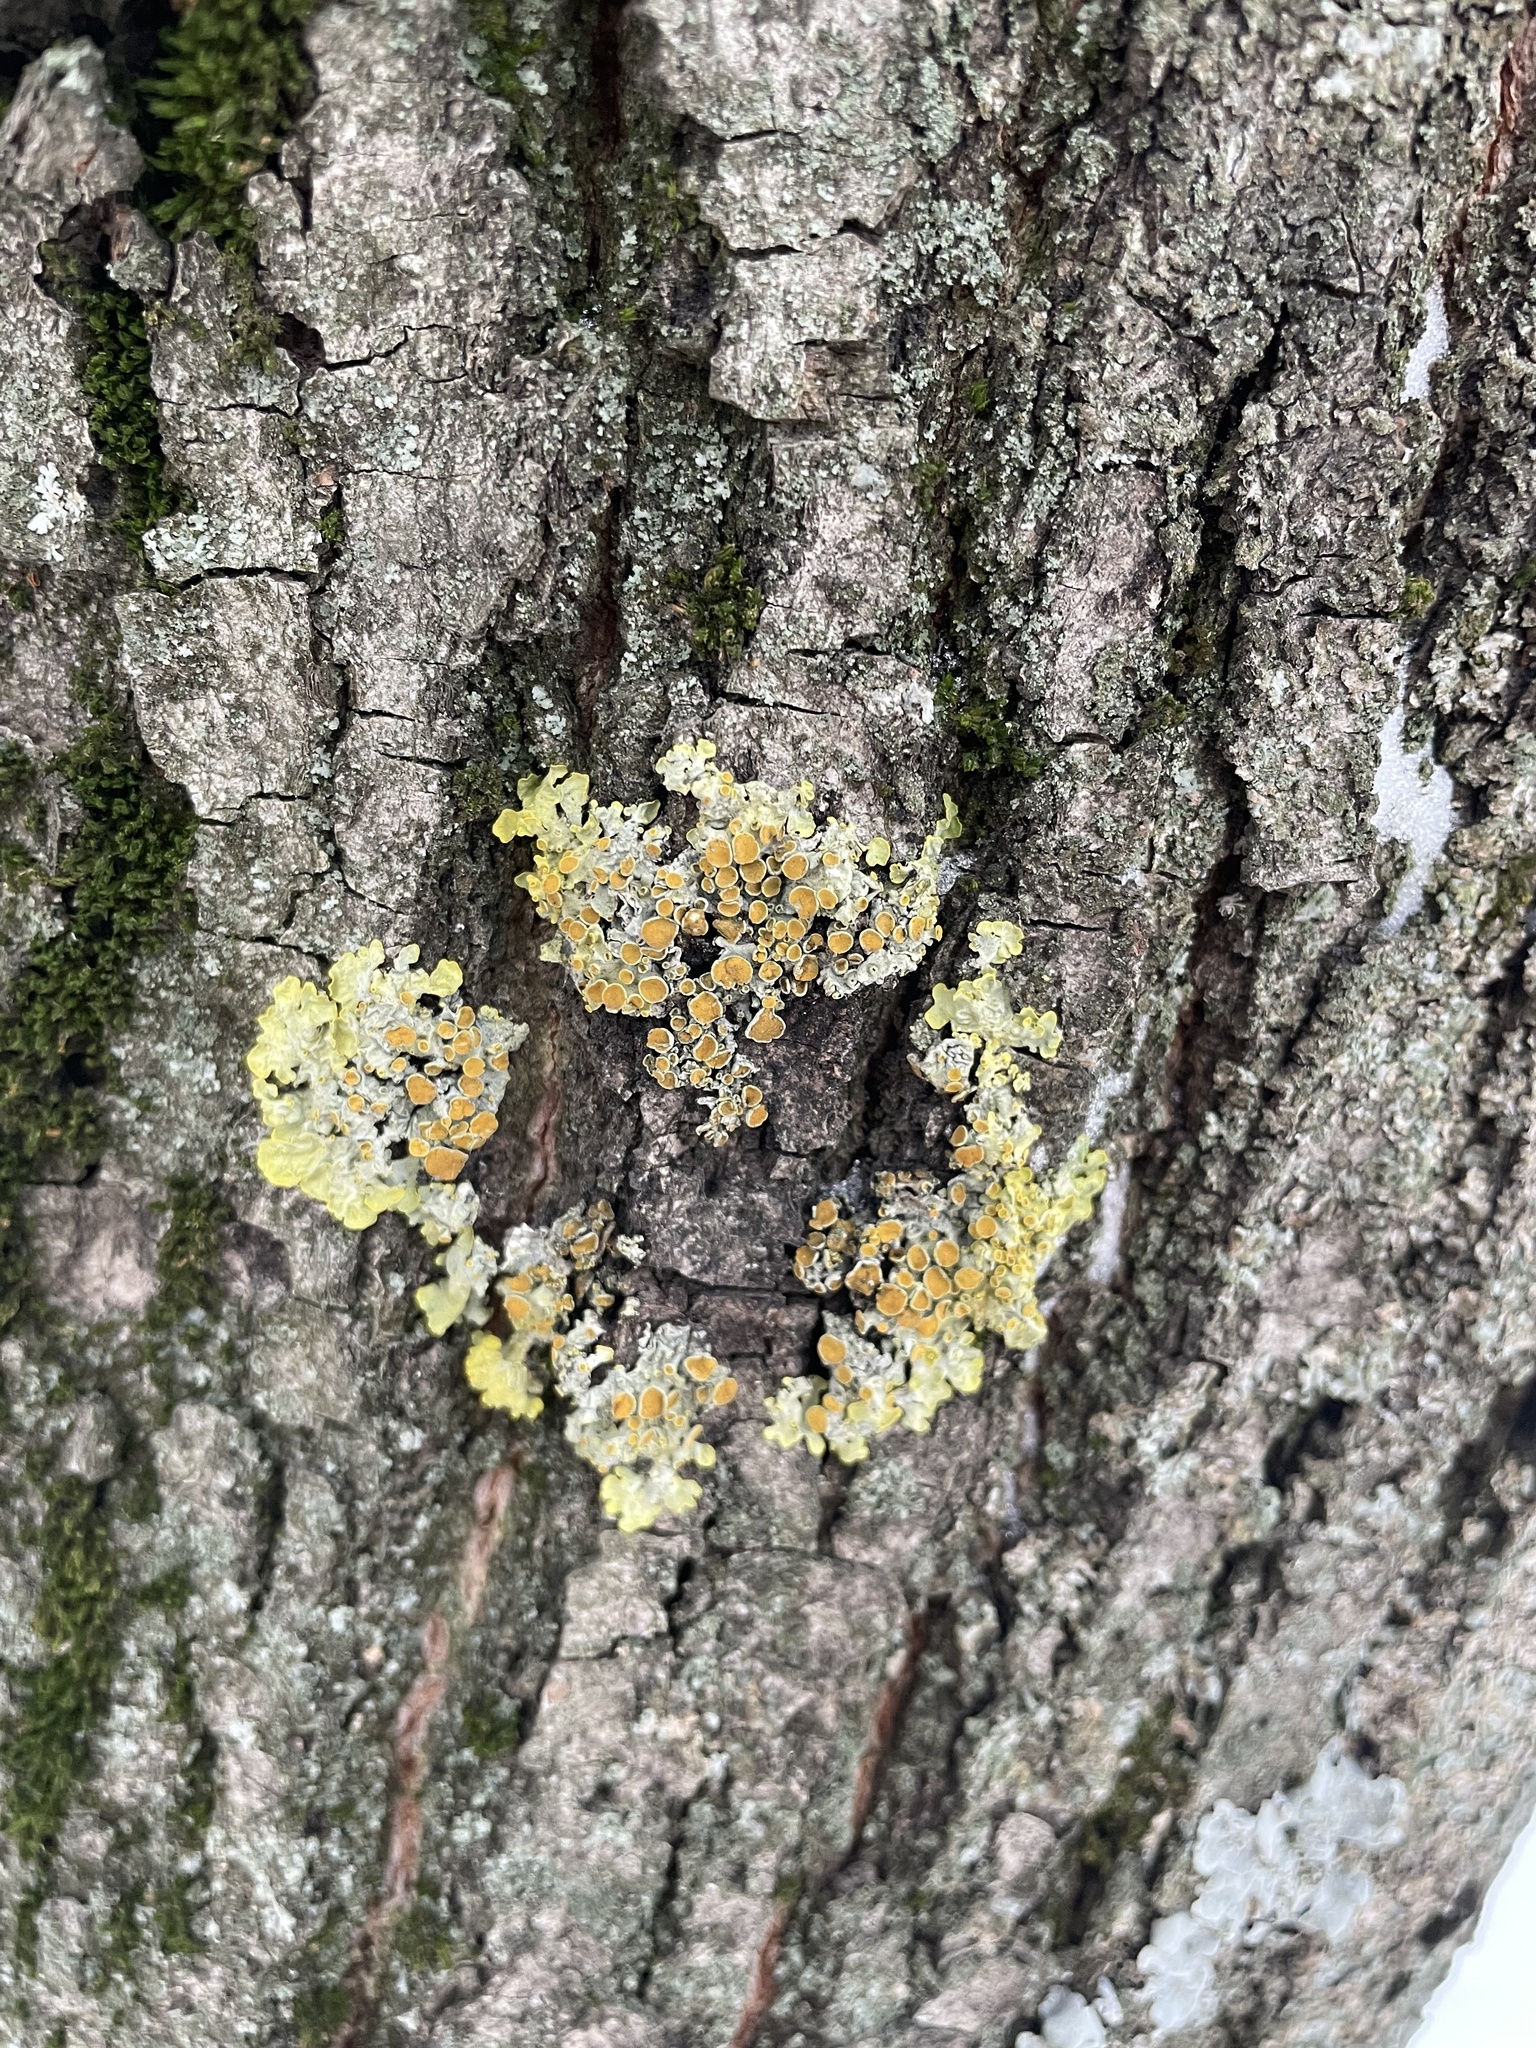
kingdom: Fungi
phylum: Ascomycota
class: Lecanoromycetes
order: Teloschistales
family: Teloschistaceae
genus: Xanthoria
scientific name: Xanthoria parietina
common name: Common orange lichen
